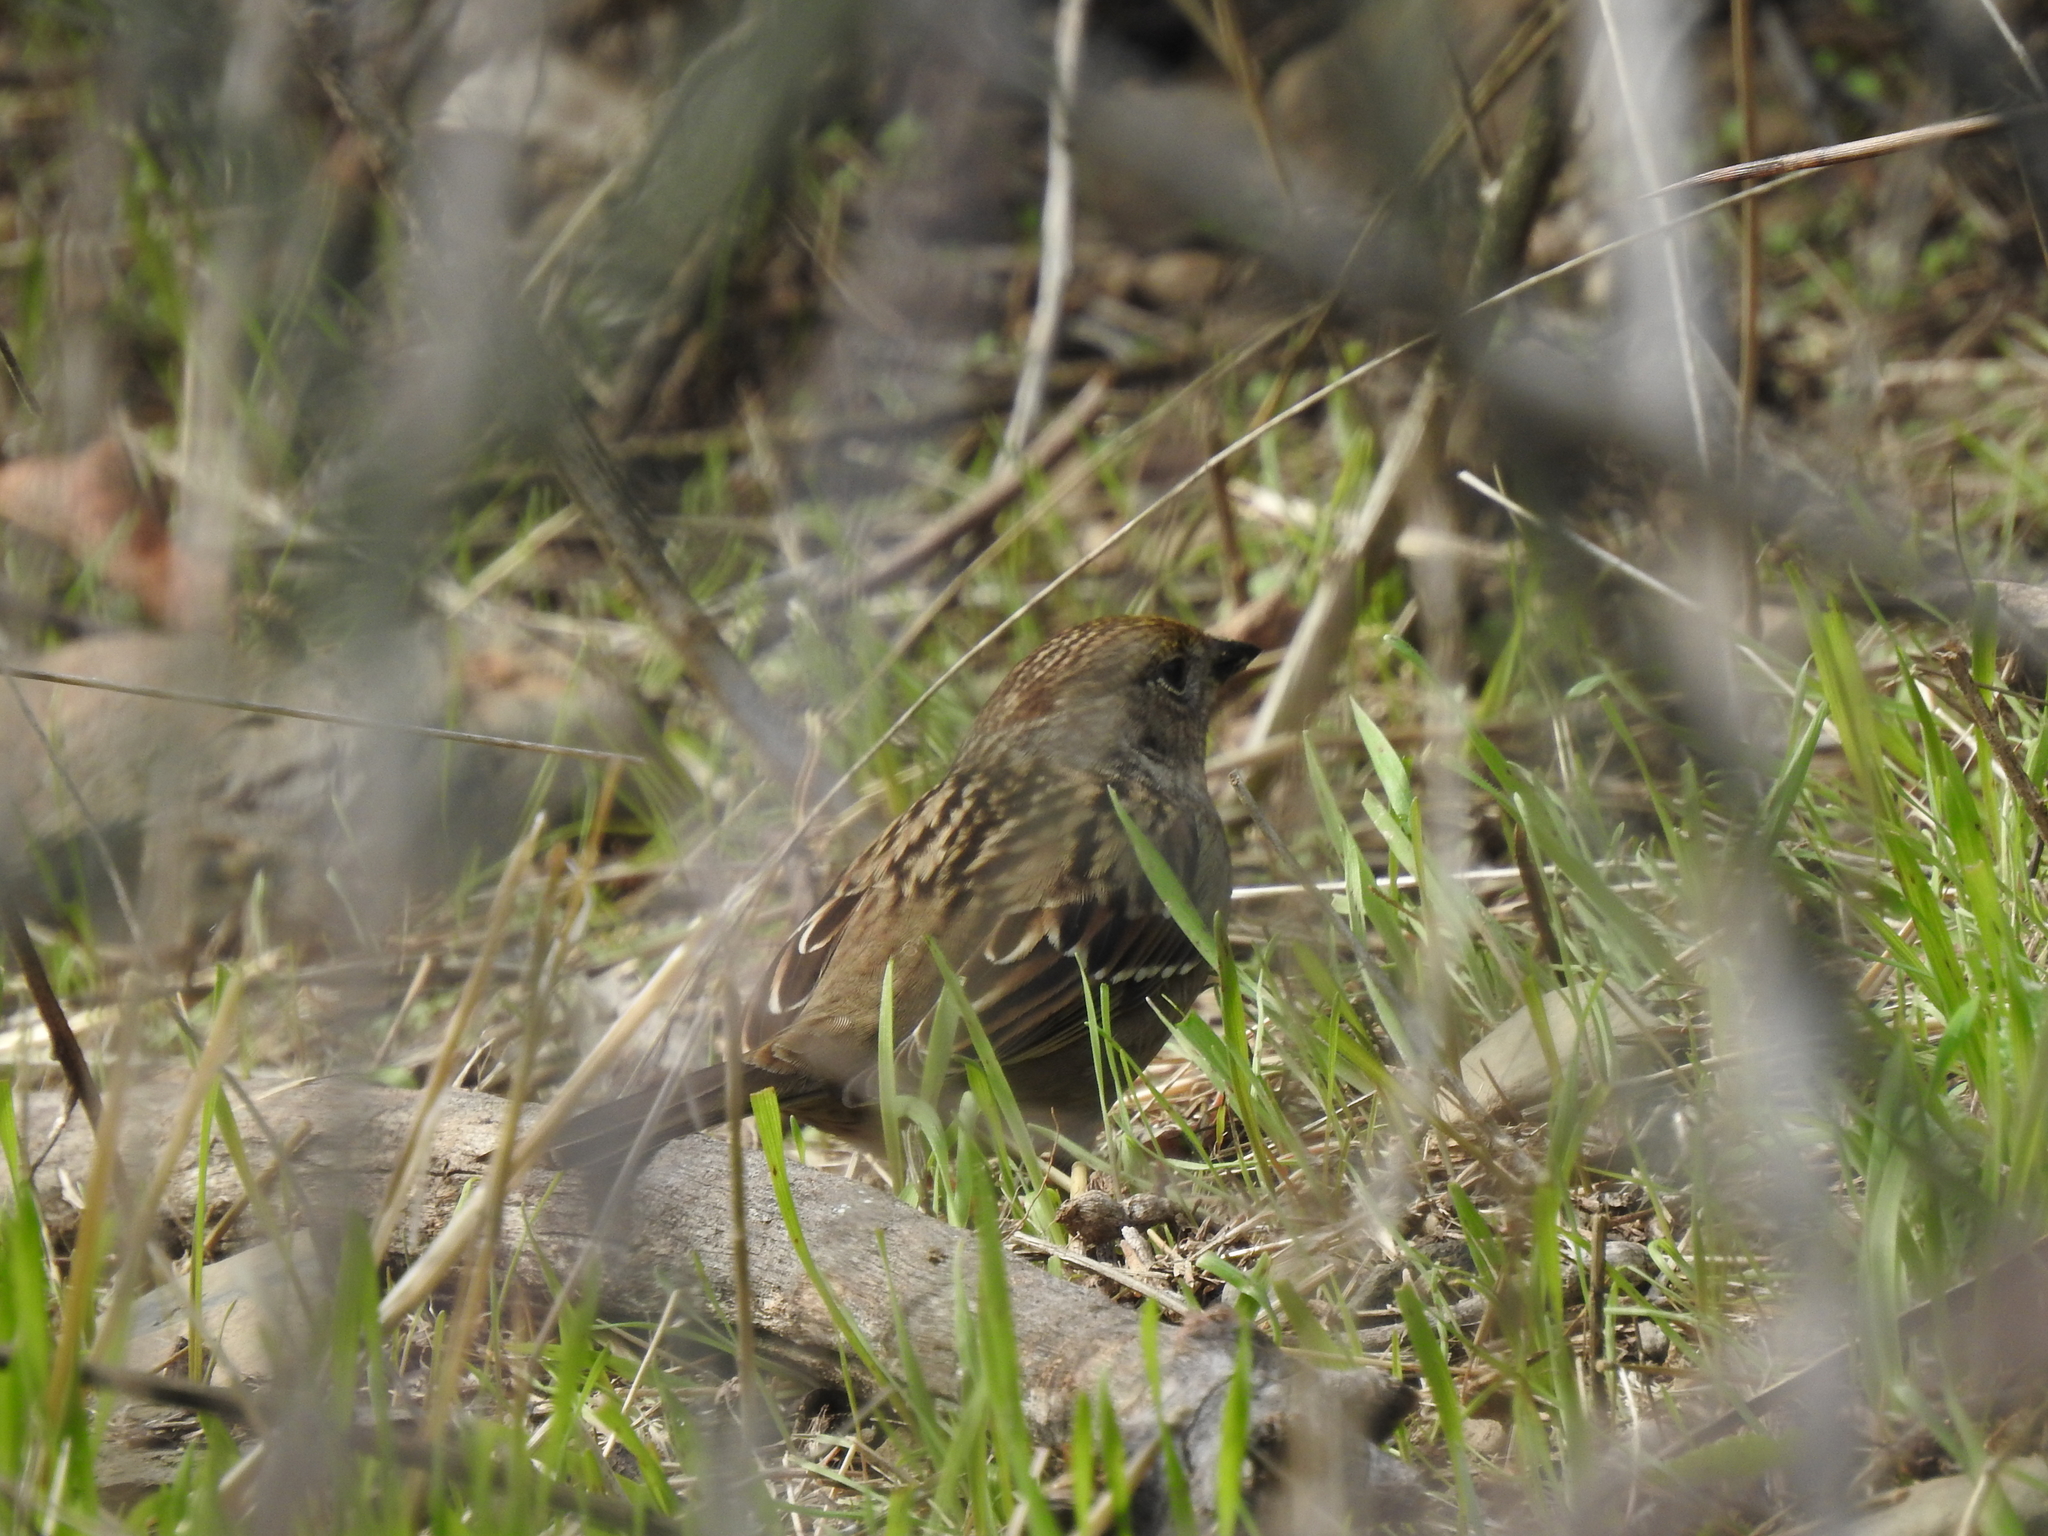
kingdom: Animalia
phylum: Chordata
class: Aves
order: Passeriformes
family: Passerellidae
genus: Zonotrichia
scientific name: Zonotrichia atricapilla
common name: Golden-crowned sparrow
